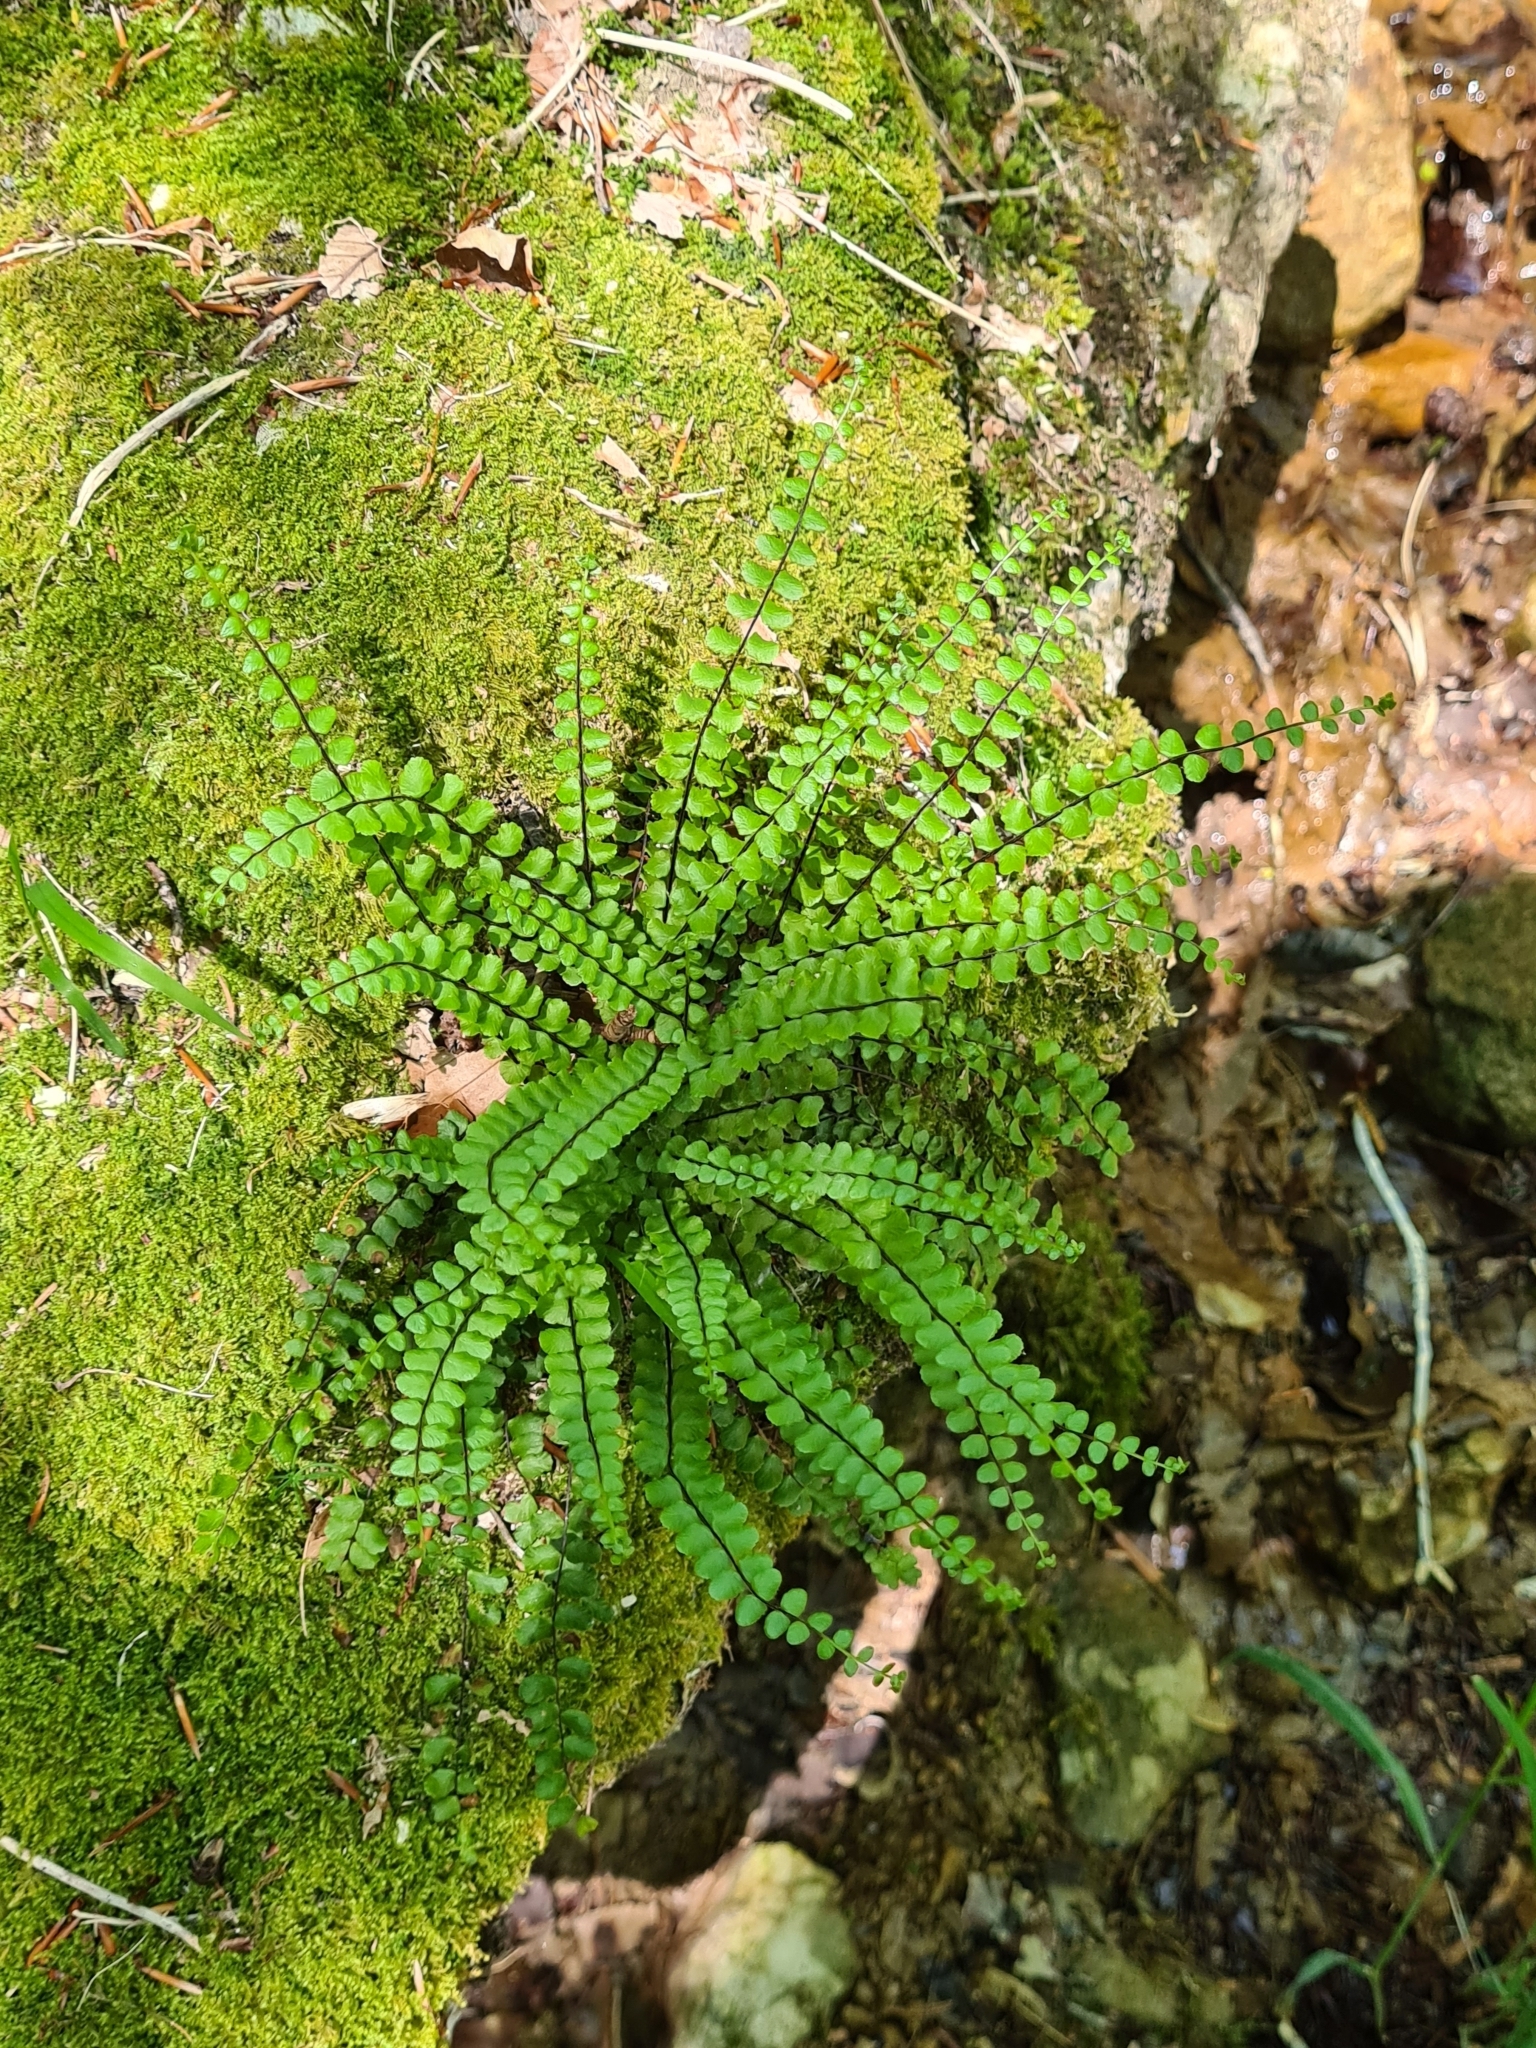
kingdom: Plantae
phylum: Tracheophyta
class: Polypodiopsida
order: Polypodiales
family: Aspleniaceae
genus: Asplenium
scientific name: Asplenium trichomanes
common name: Maidenhair spleenwort
